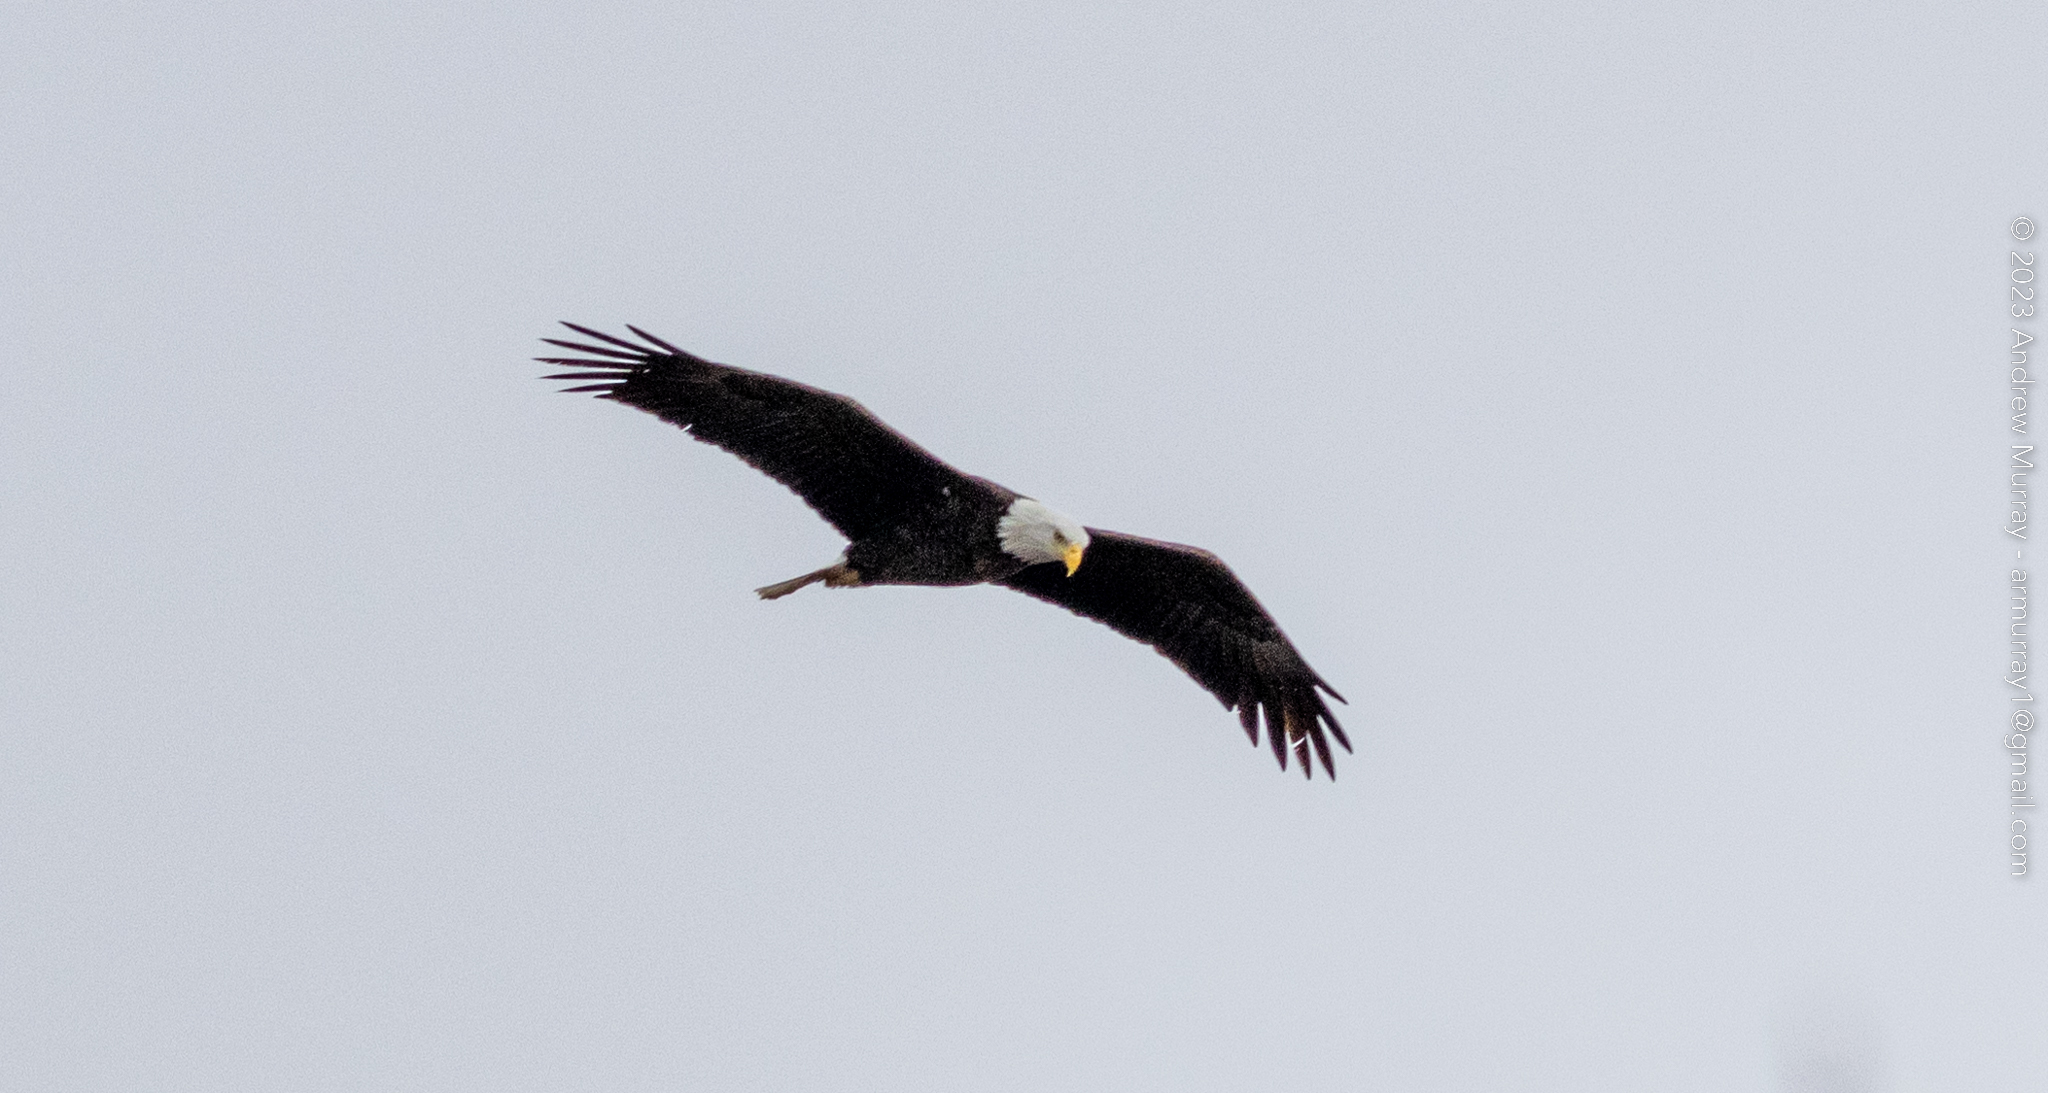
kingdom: Animalia
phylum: Chordata
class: Aves
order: Accipitriformes
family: Accipitridae
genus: Haliaeetus
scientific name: Haliaeetus leucocephalus
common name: Bald eagle
